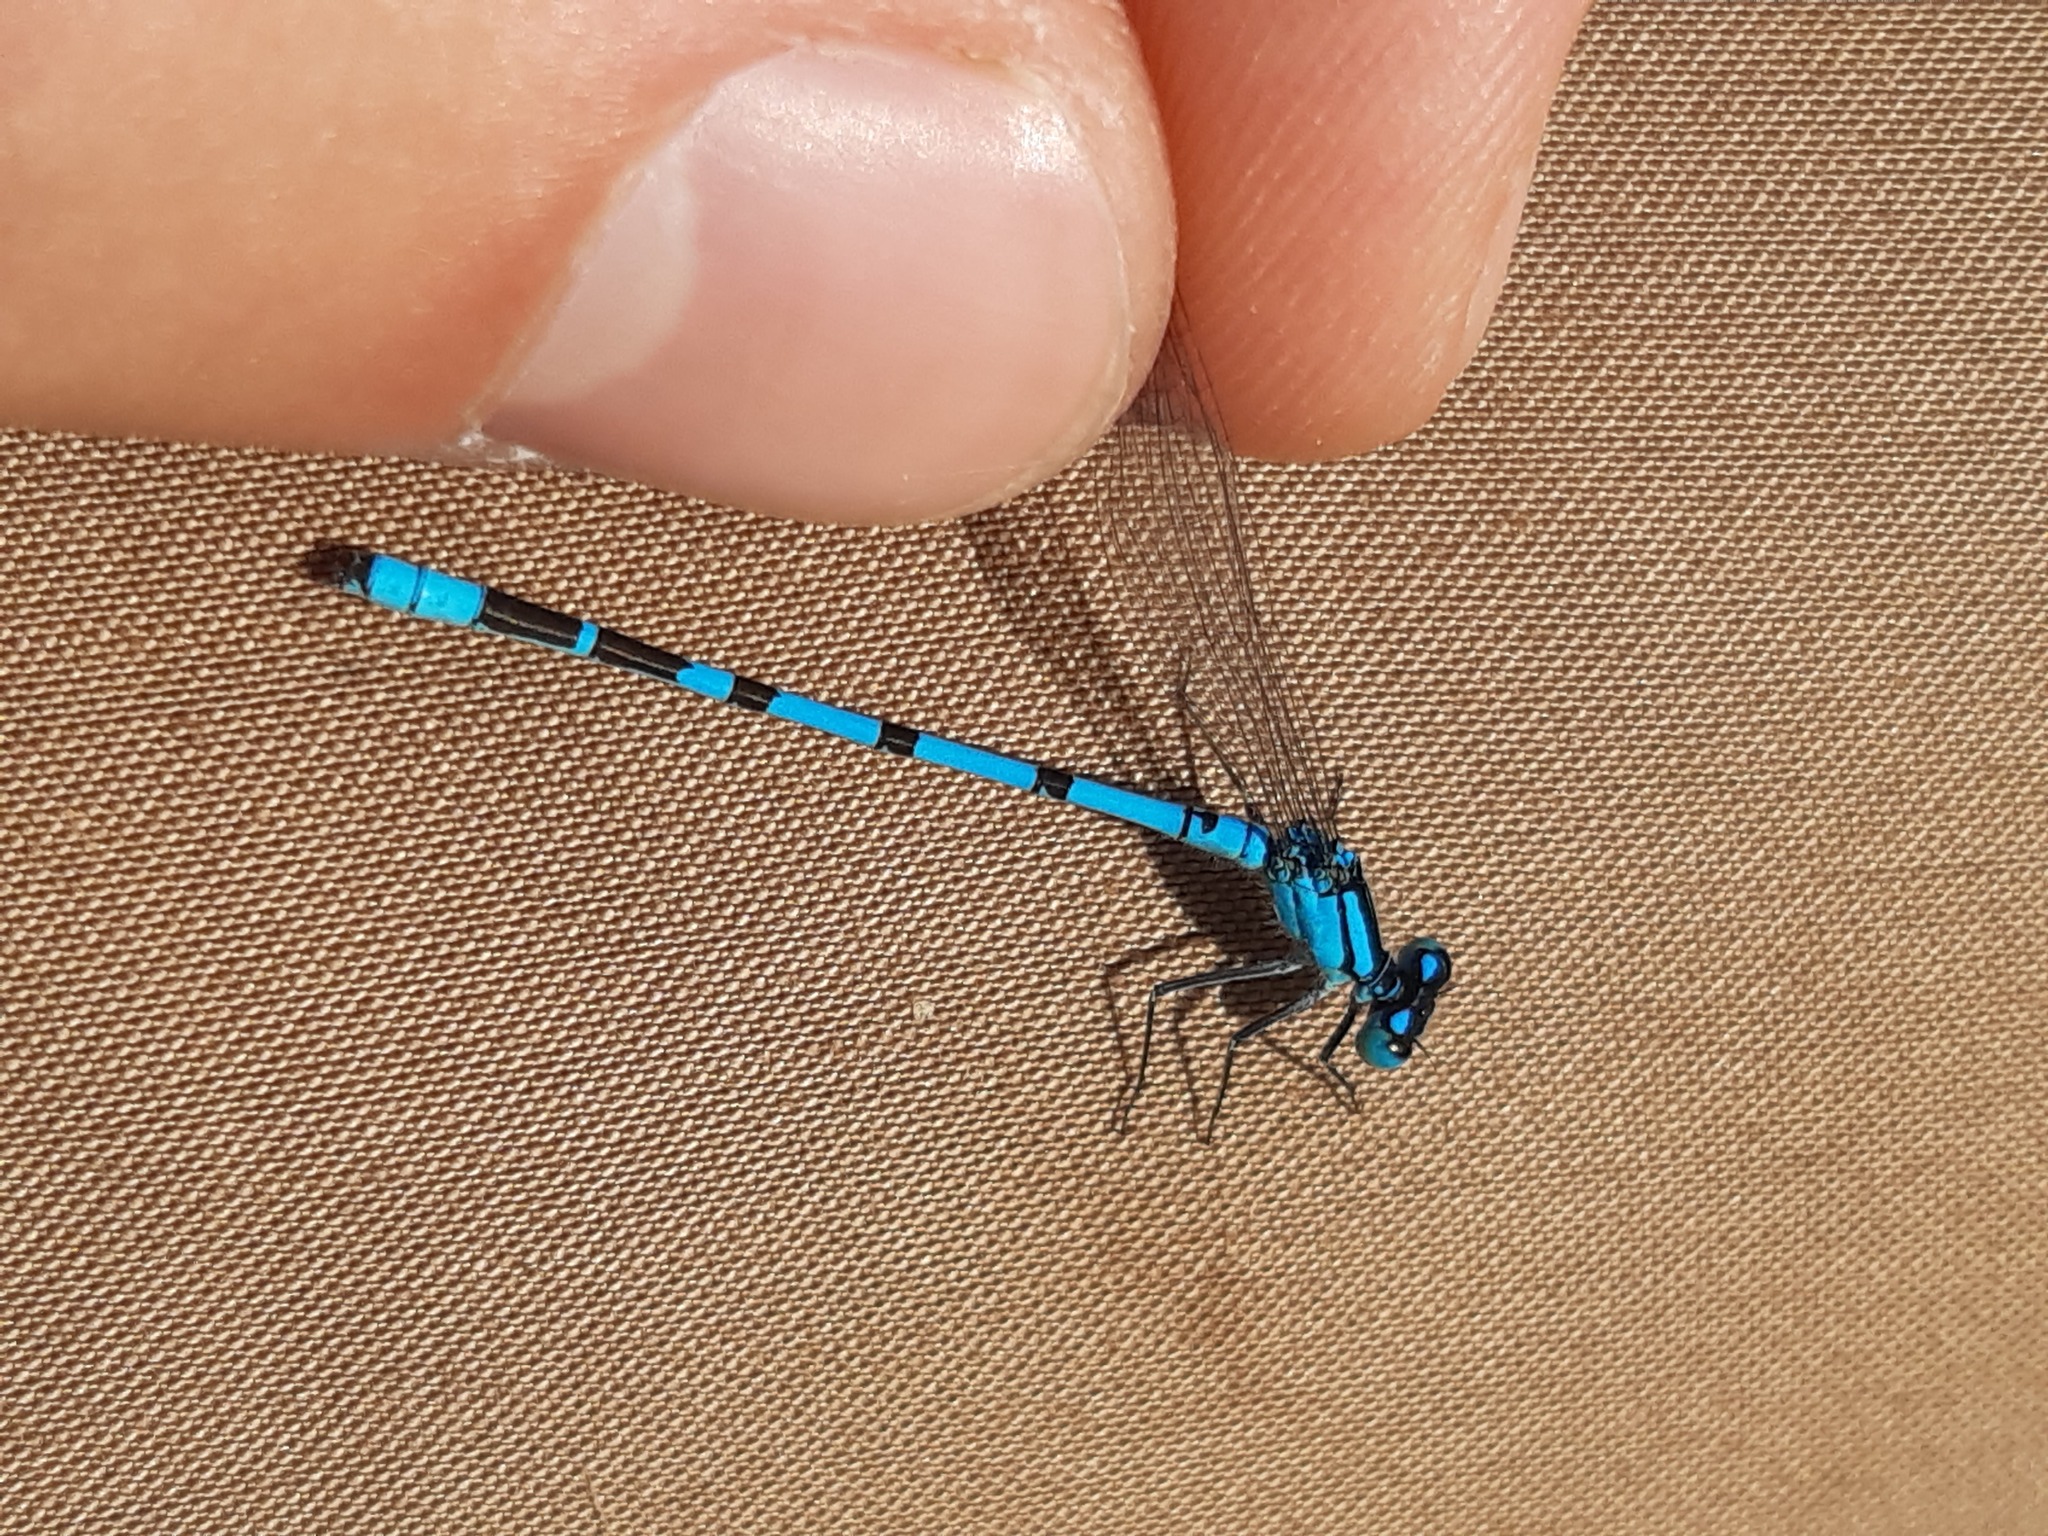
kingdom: Animalia
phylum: Arthropoda
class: Insecta
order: Odonata
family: Coenagrionidae
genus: Enallagma
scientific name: Enallagma cyathigerum
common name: Common blue damselfly
